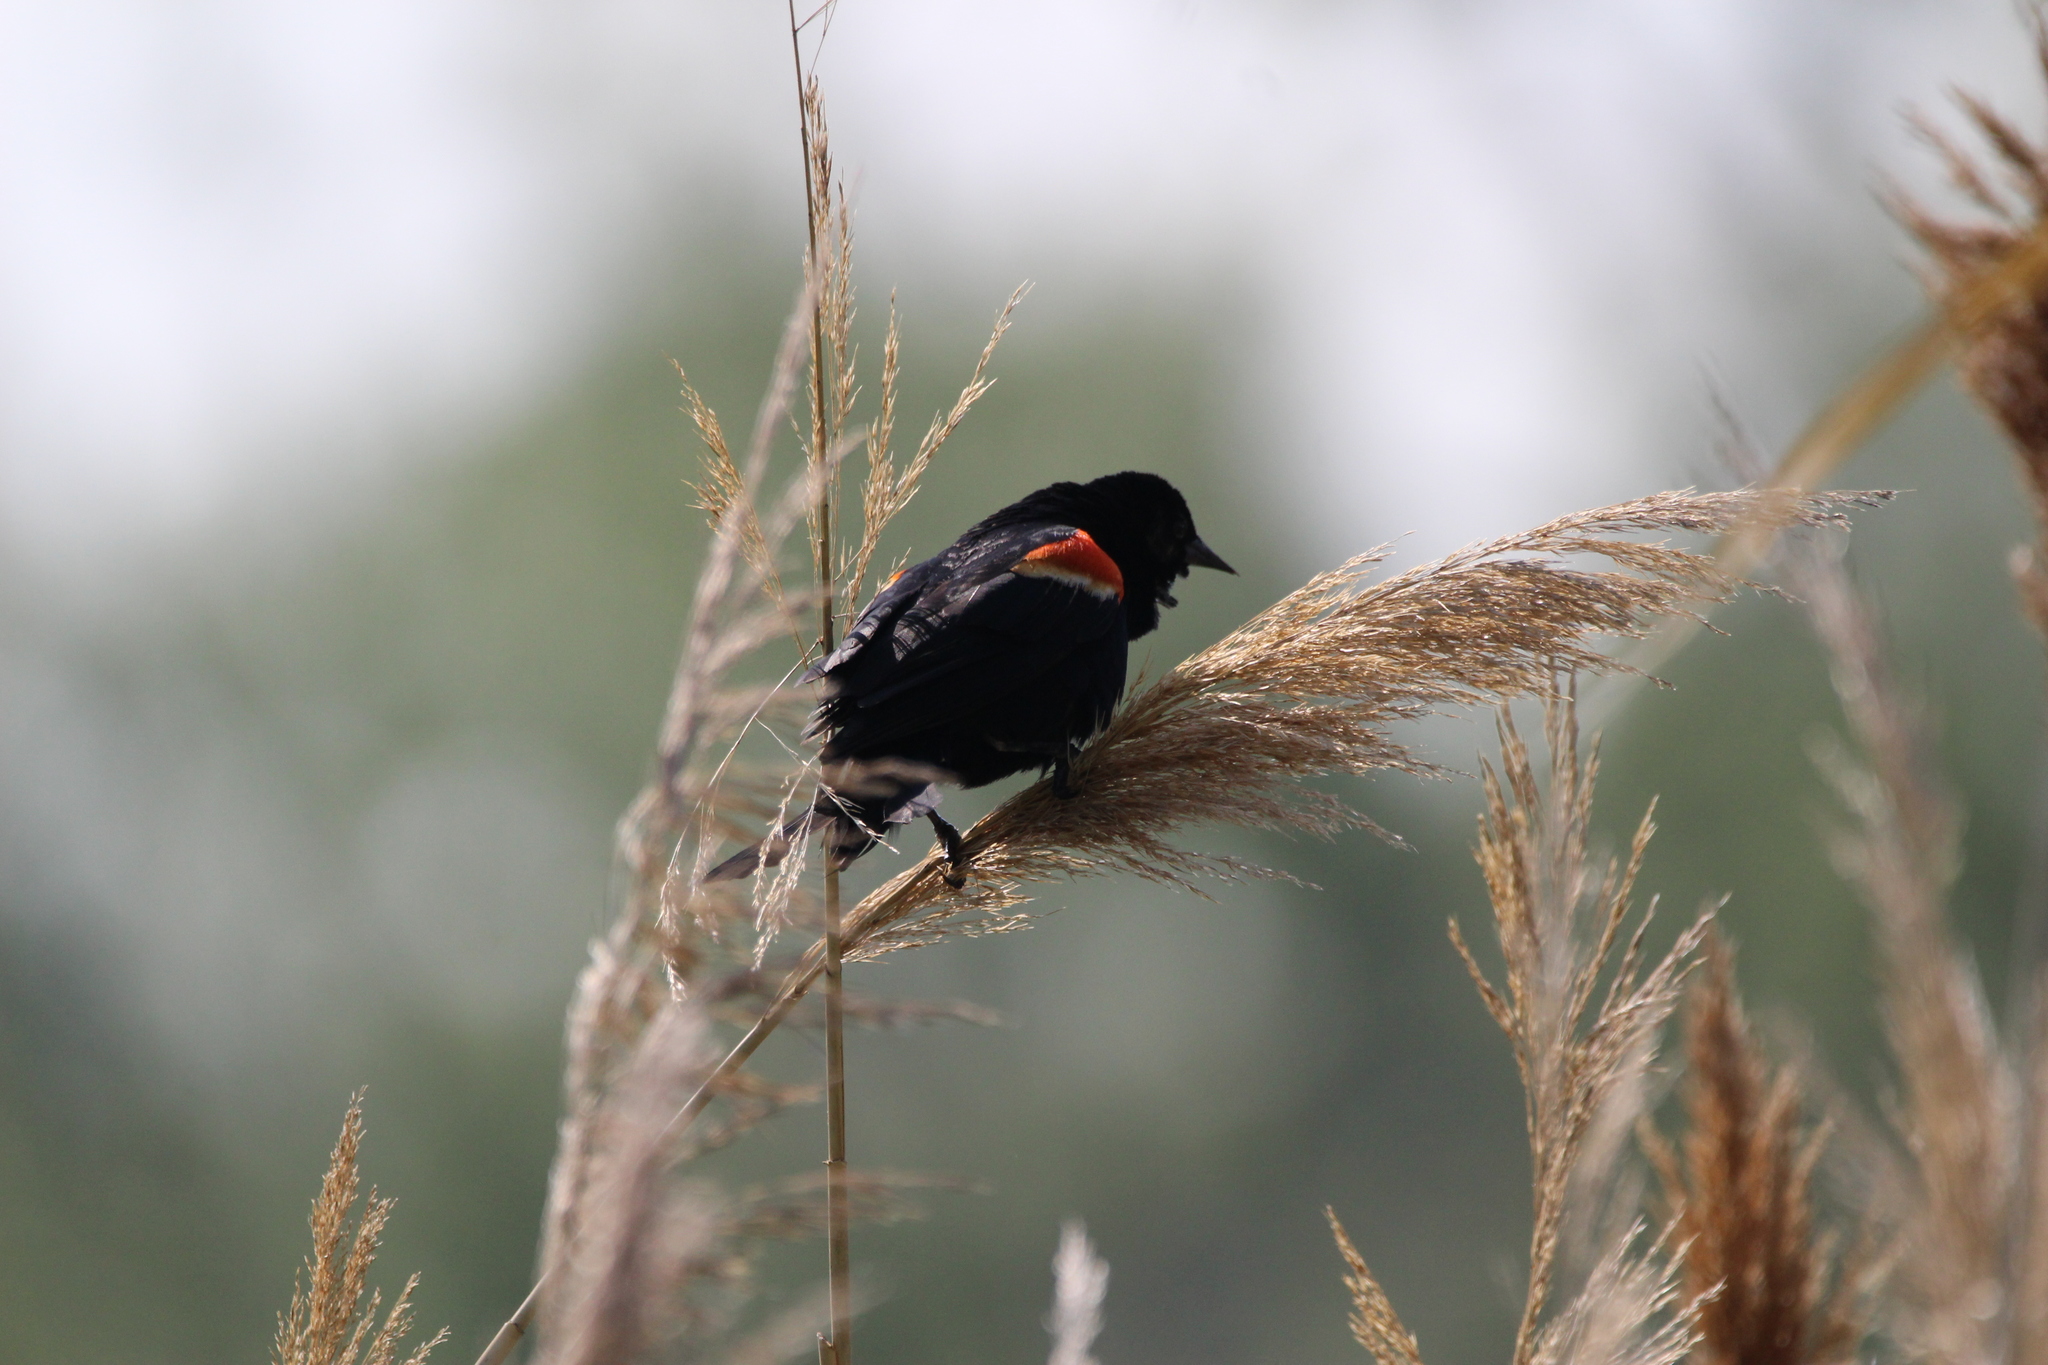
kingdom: Animalia
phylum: Chordata
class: Aves
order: Passeriformes
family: Icteridae
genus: Agelaius
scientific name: Agelaius phoeniceus
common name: Red-winged blackbird
